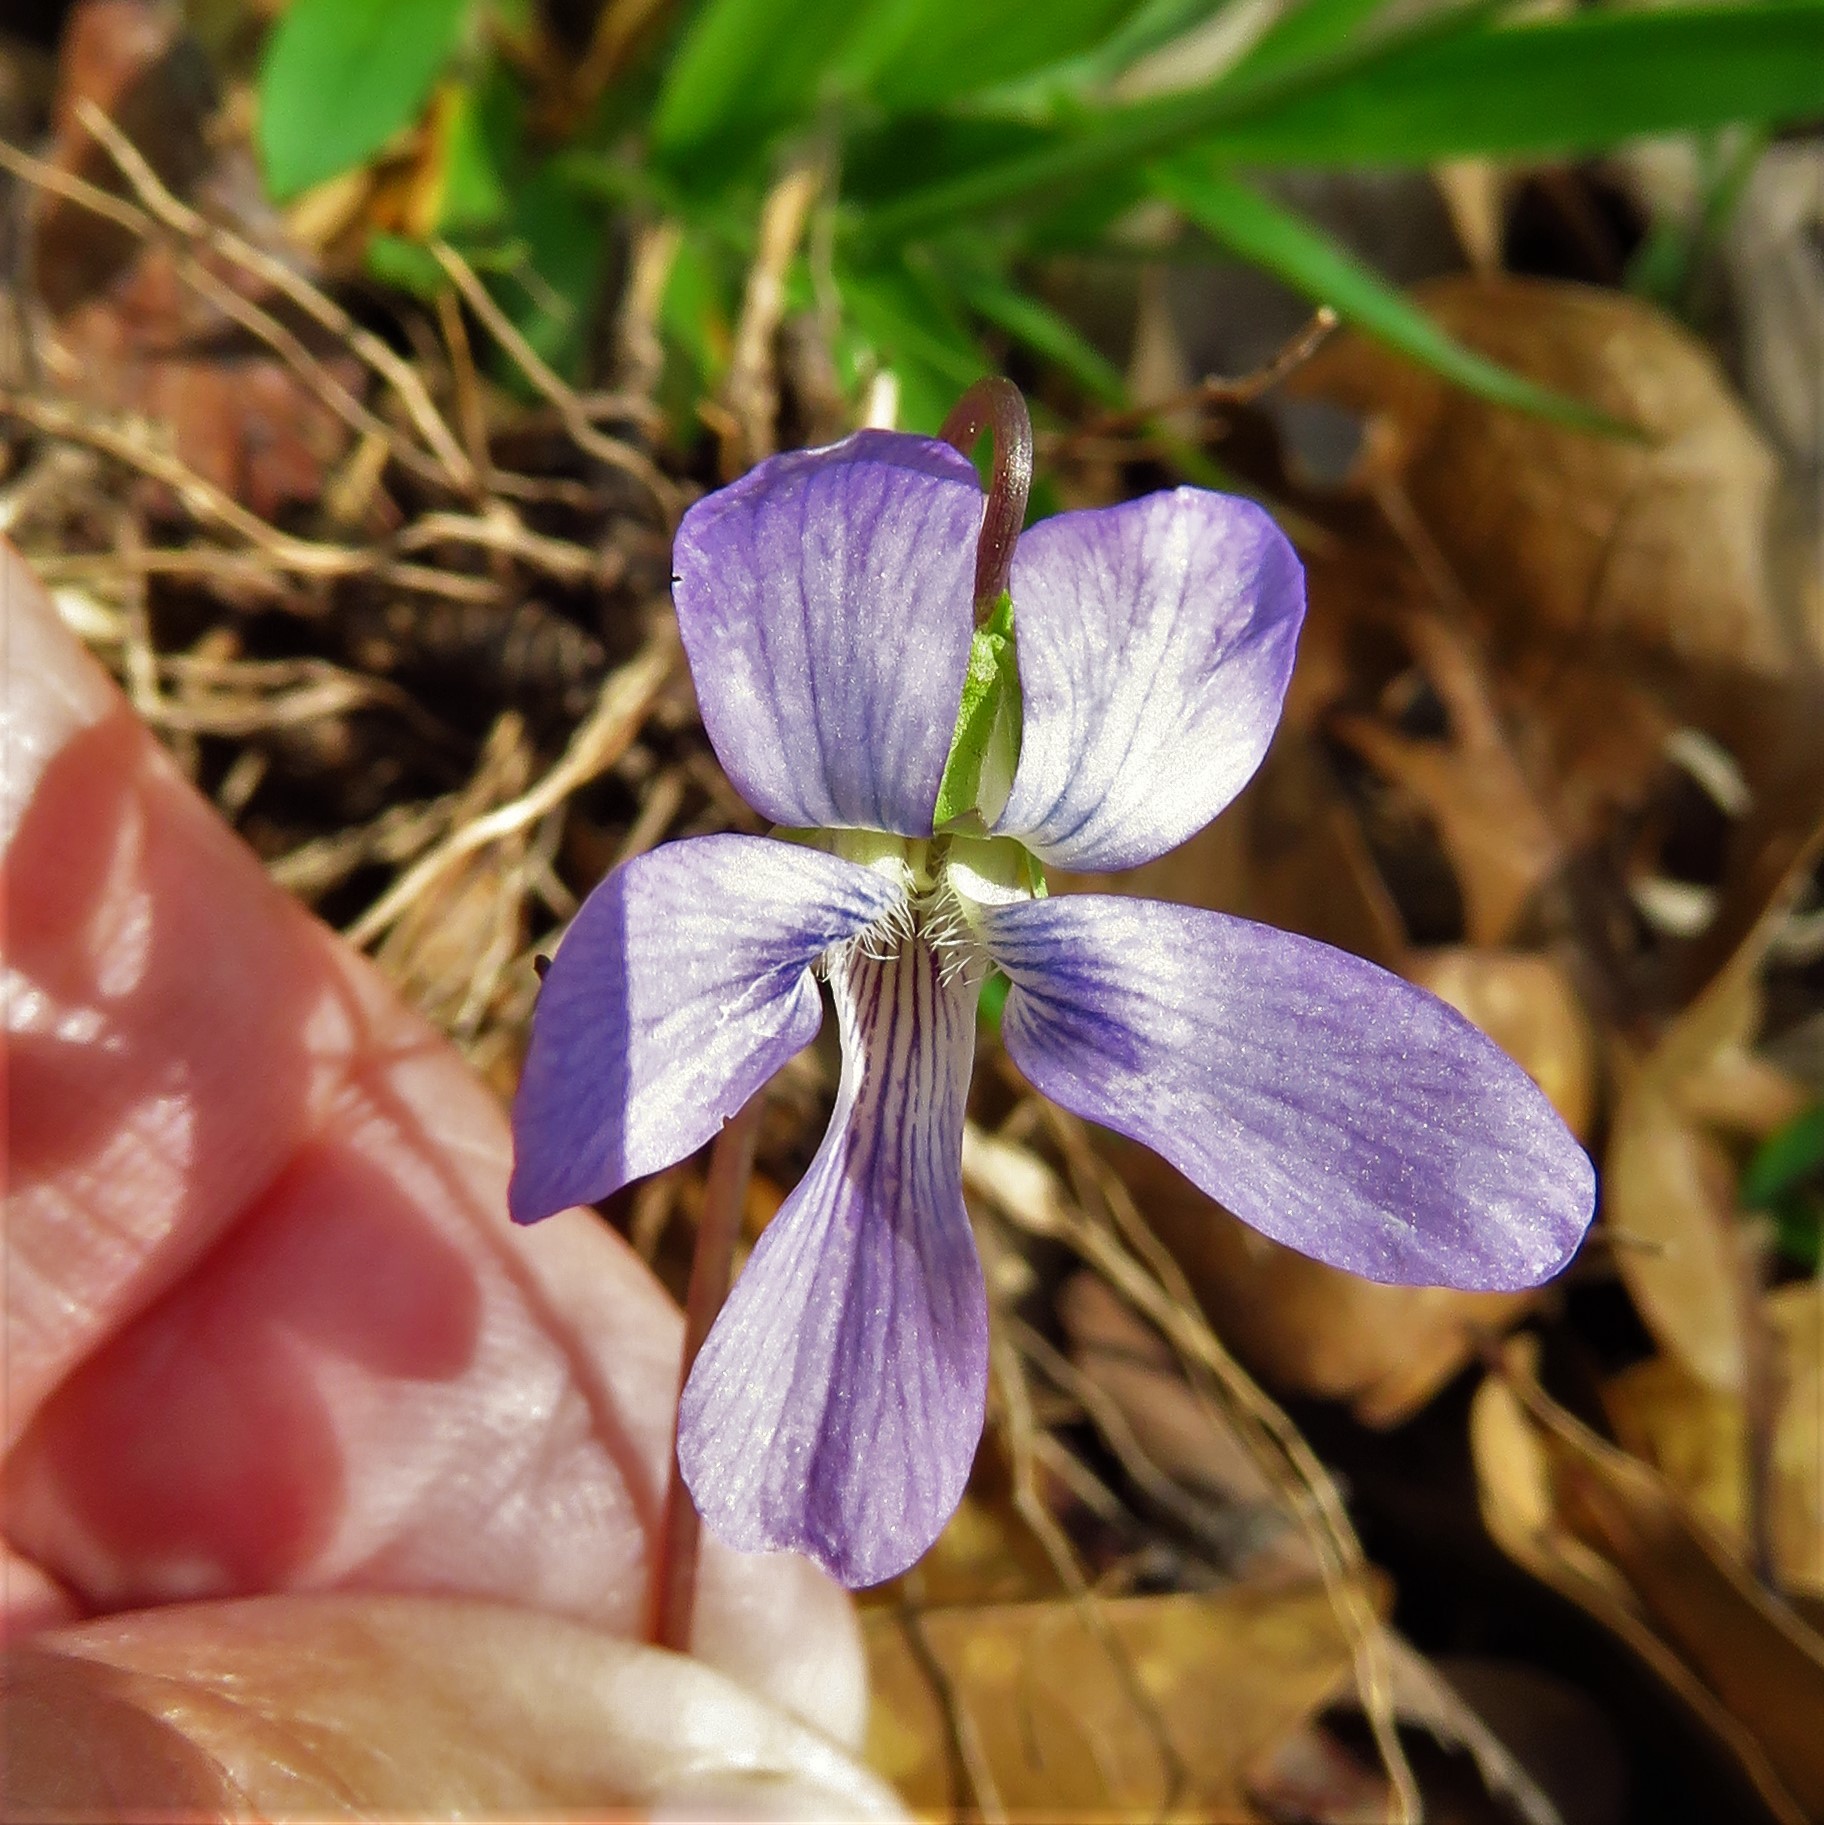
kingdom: Plantae
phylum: Tracheophyta
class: Magnoliopsida
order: Malpighiales
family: Violaceae
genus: Viola
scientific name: Viola palmata
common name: Early blue violet
